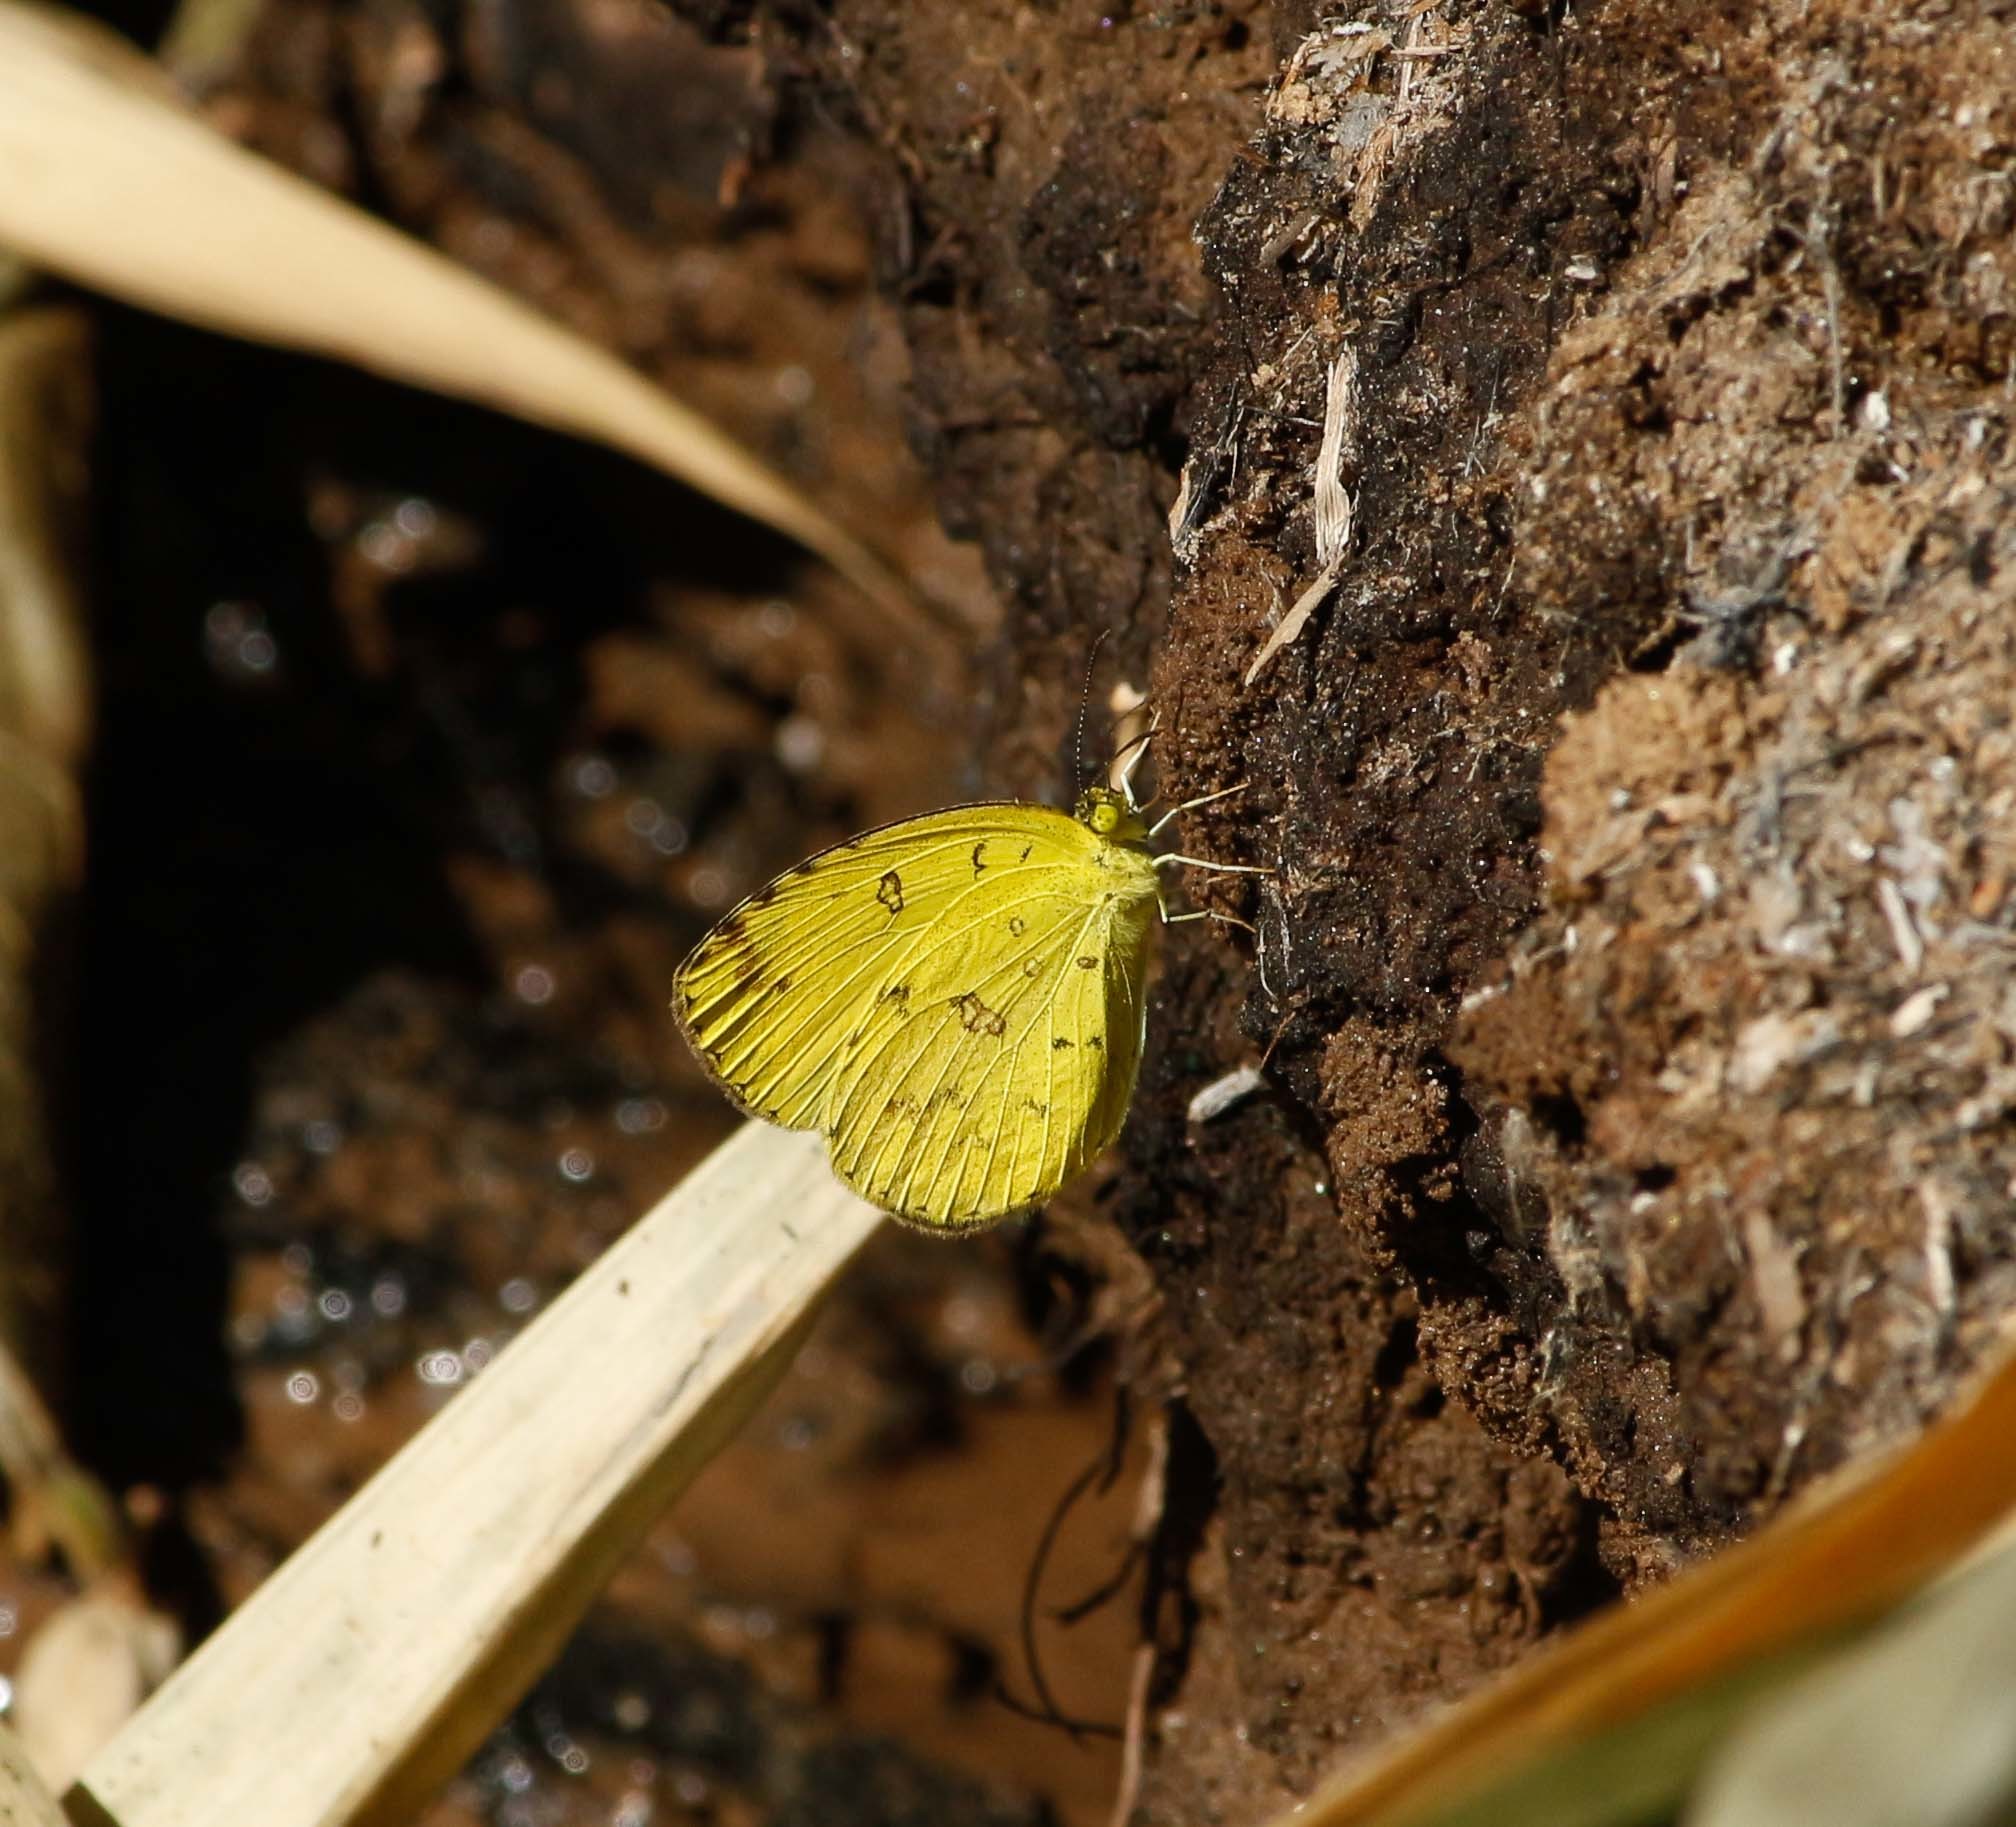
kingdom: Animalia
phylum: Arthropoda
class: Insecta
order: Lepidoptera
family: Pieridae
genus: Eurema
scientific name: Eurema hecabe
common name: Pale grass yellow
